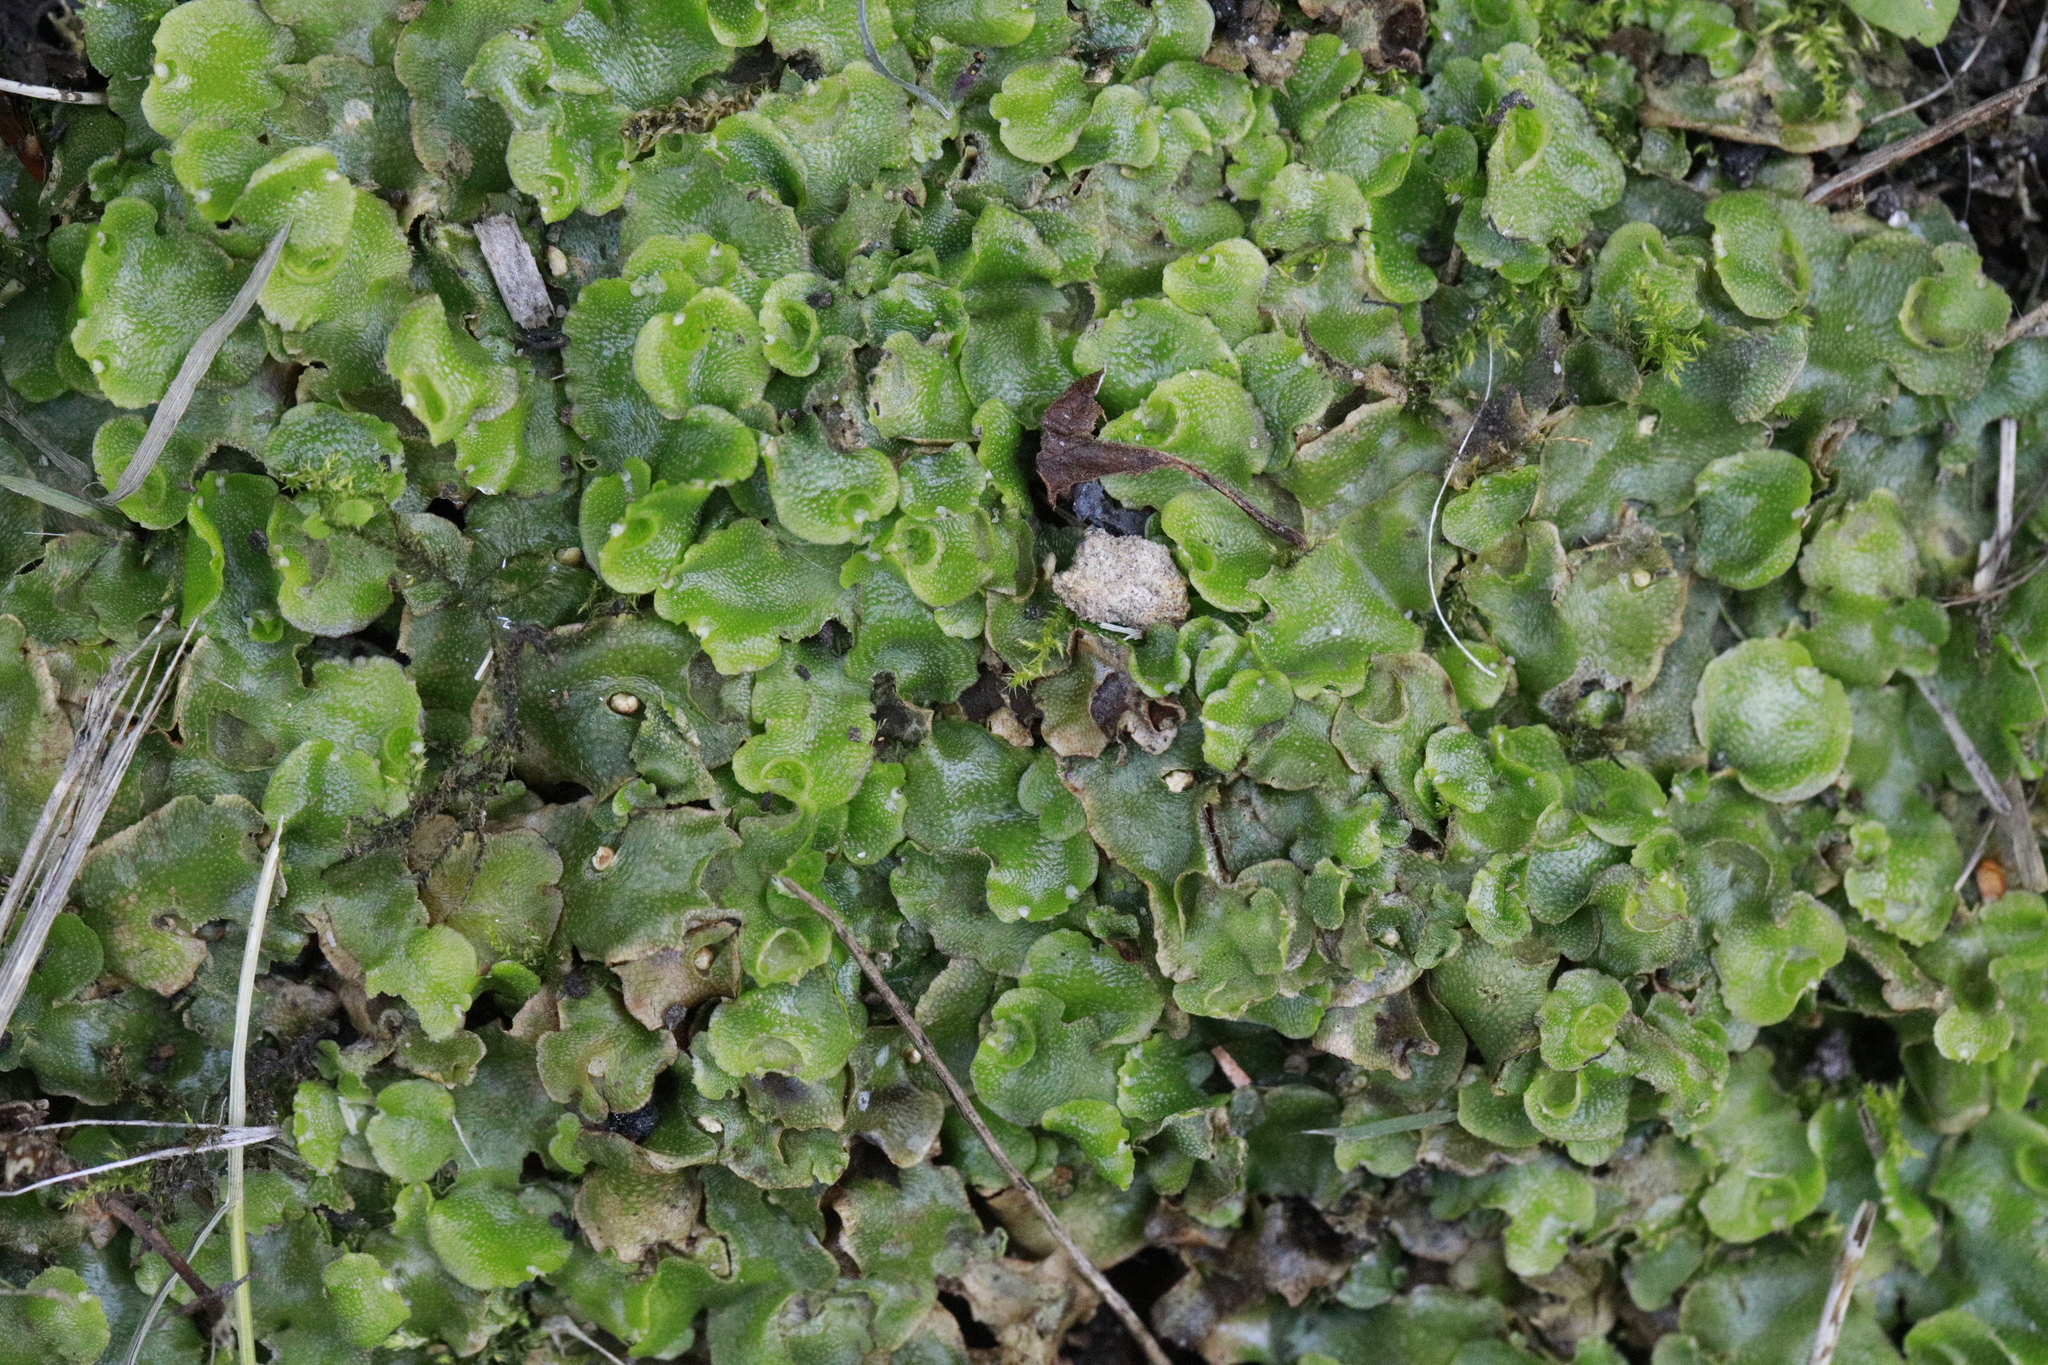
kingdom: Plantae
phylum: Marchantiophyta
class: Marchantiopsida
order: Lunulariales
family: Lunulariaceae
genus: Lunularia
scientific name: Lunularia cruciata
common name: Crescent-cup liverwort
